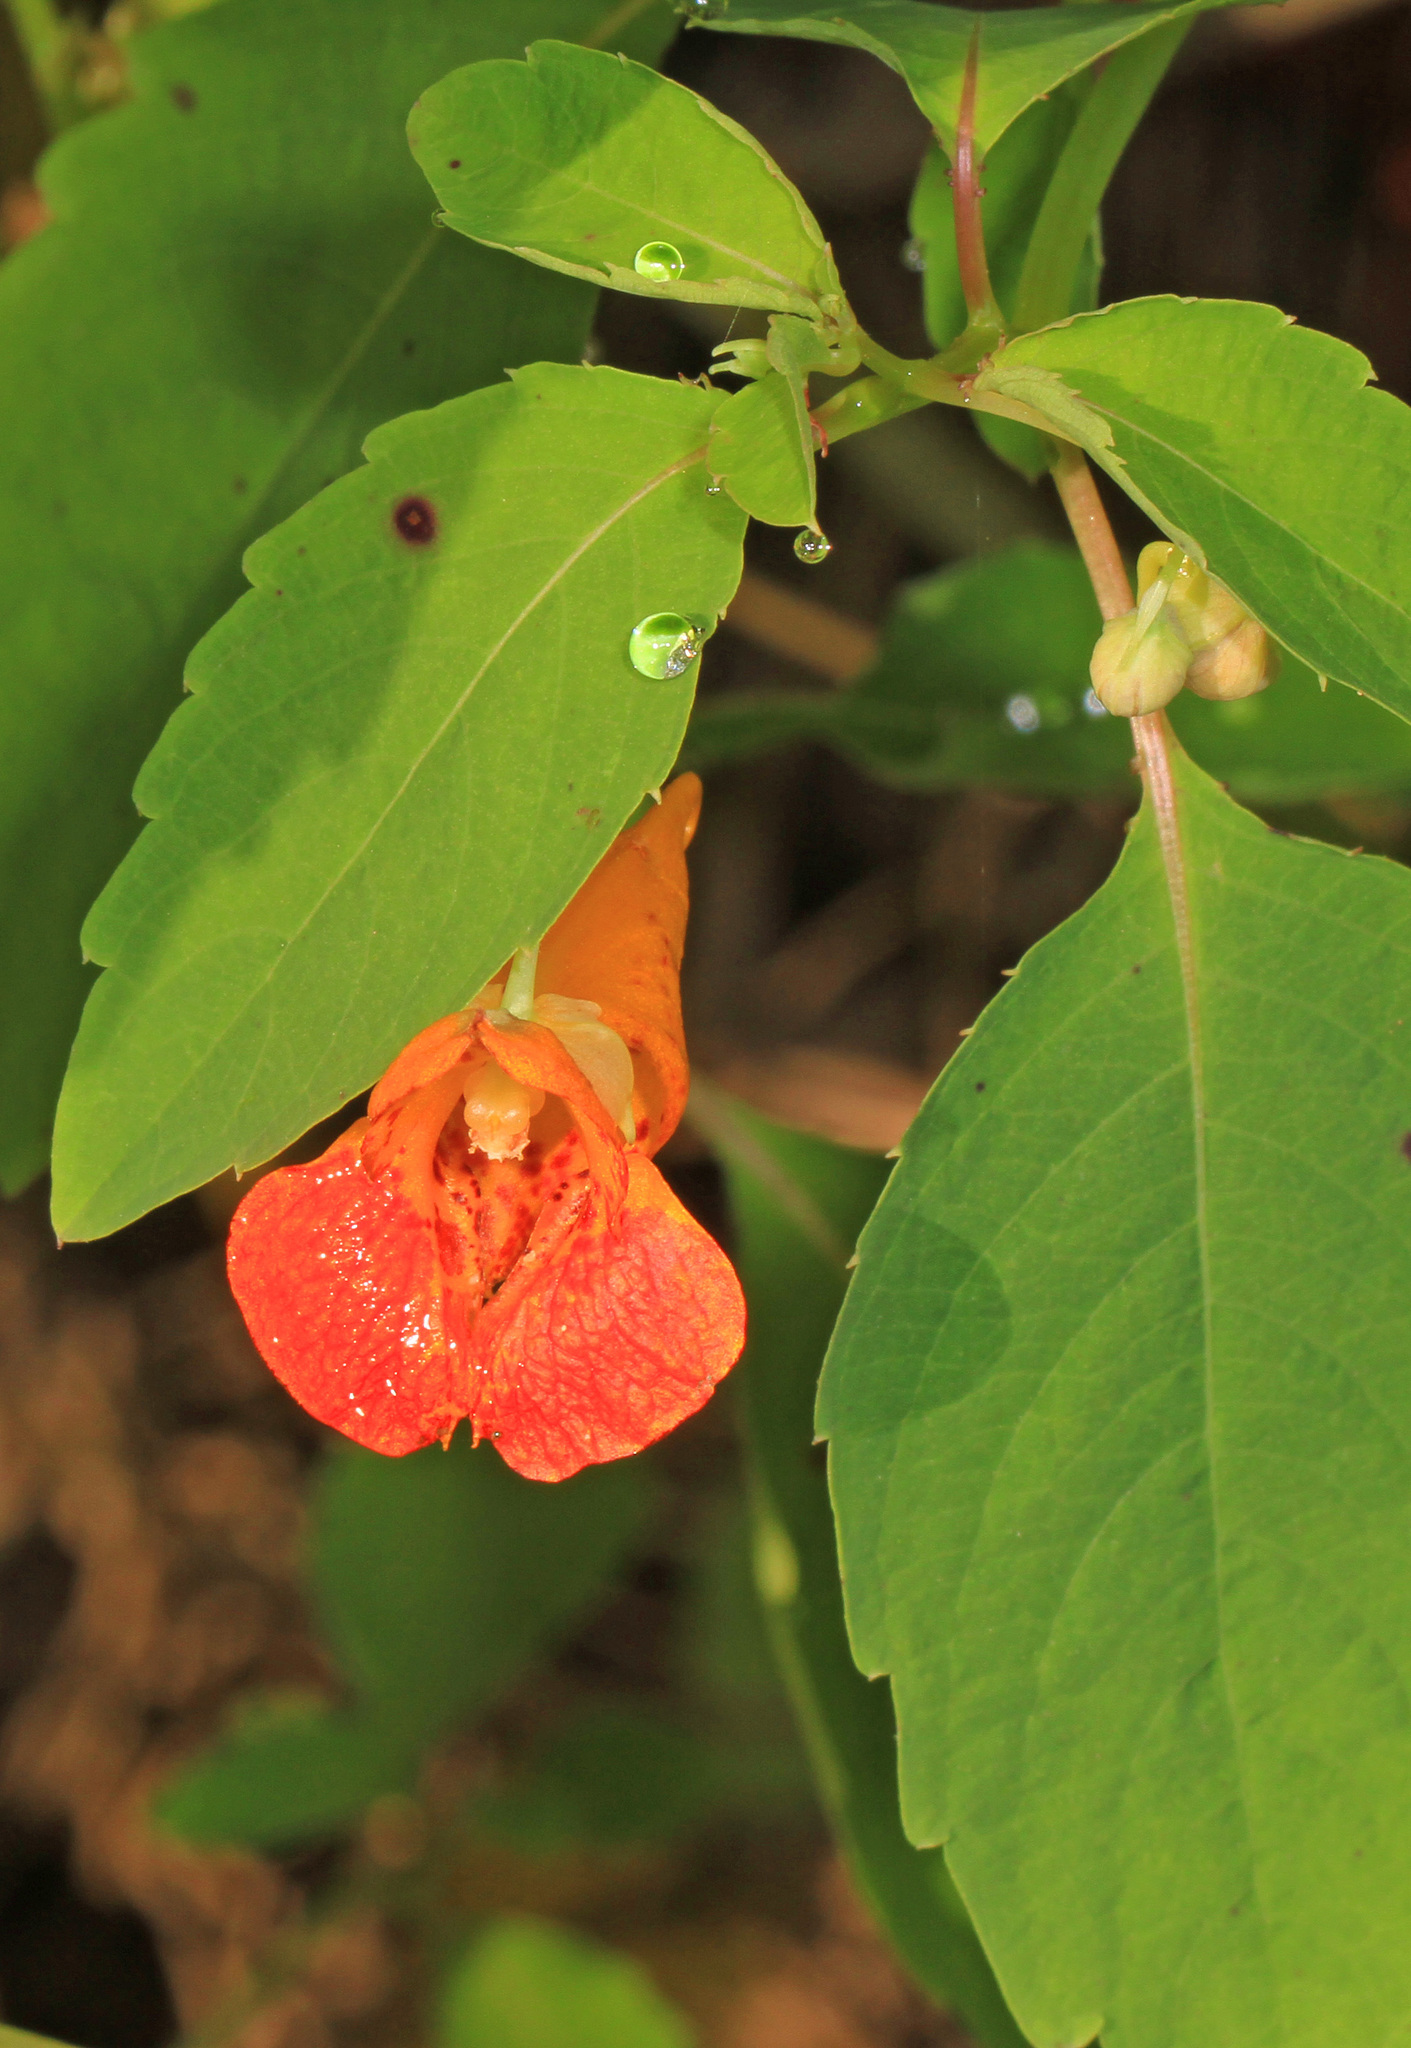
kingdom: Plantae
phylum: Tracheophyta
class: Magnoliopsida
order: Ericales
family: Balsaminaceae
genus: Impatiens
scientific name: Impatiens capensis
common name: Orange balsam
